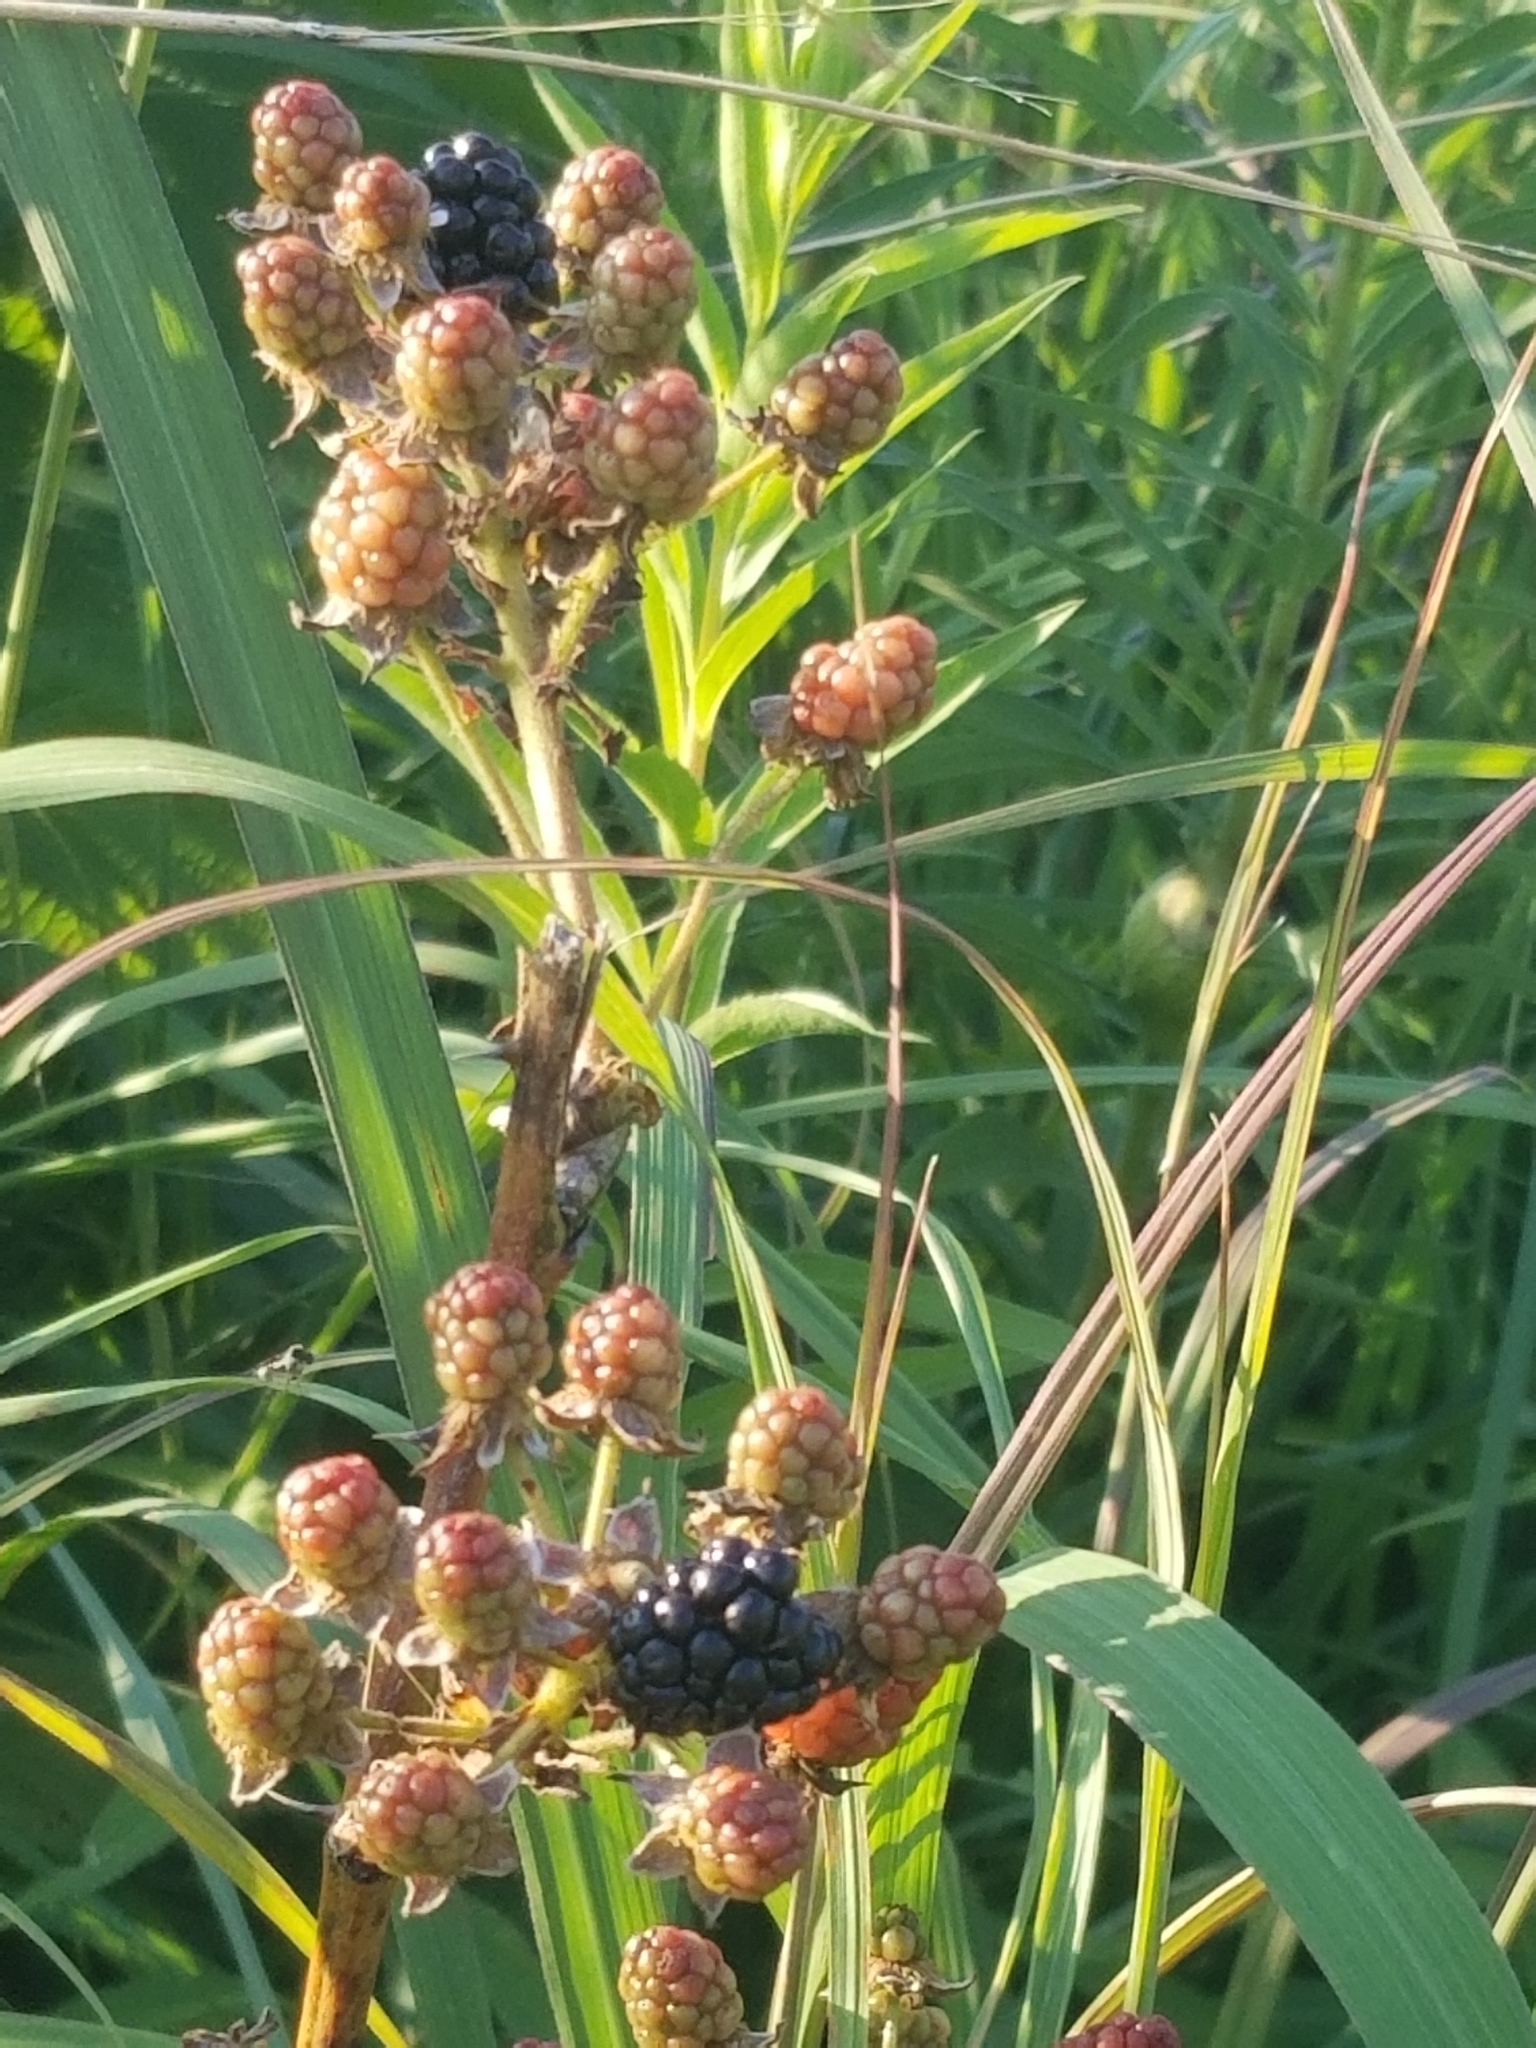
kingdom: Plantae
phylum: Tracheophyta
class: Magnoliopsida
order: Rosales
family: Rosaceae
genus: Rubus
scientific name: Rubus rosa
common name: Rose blackberry
